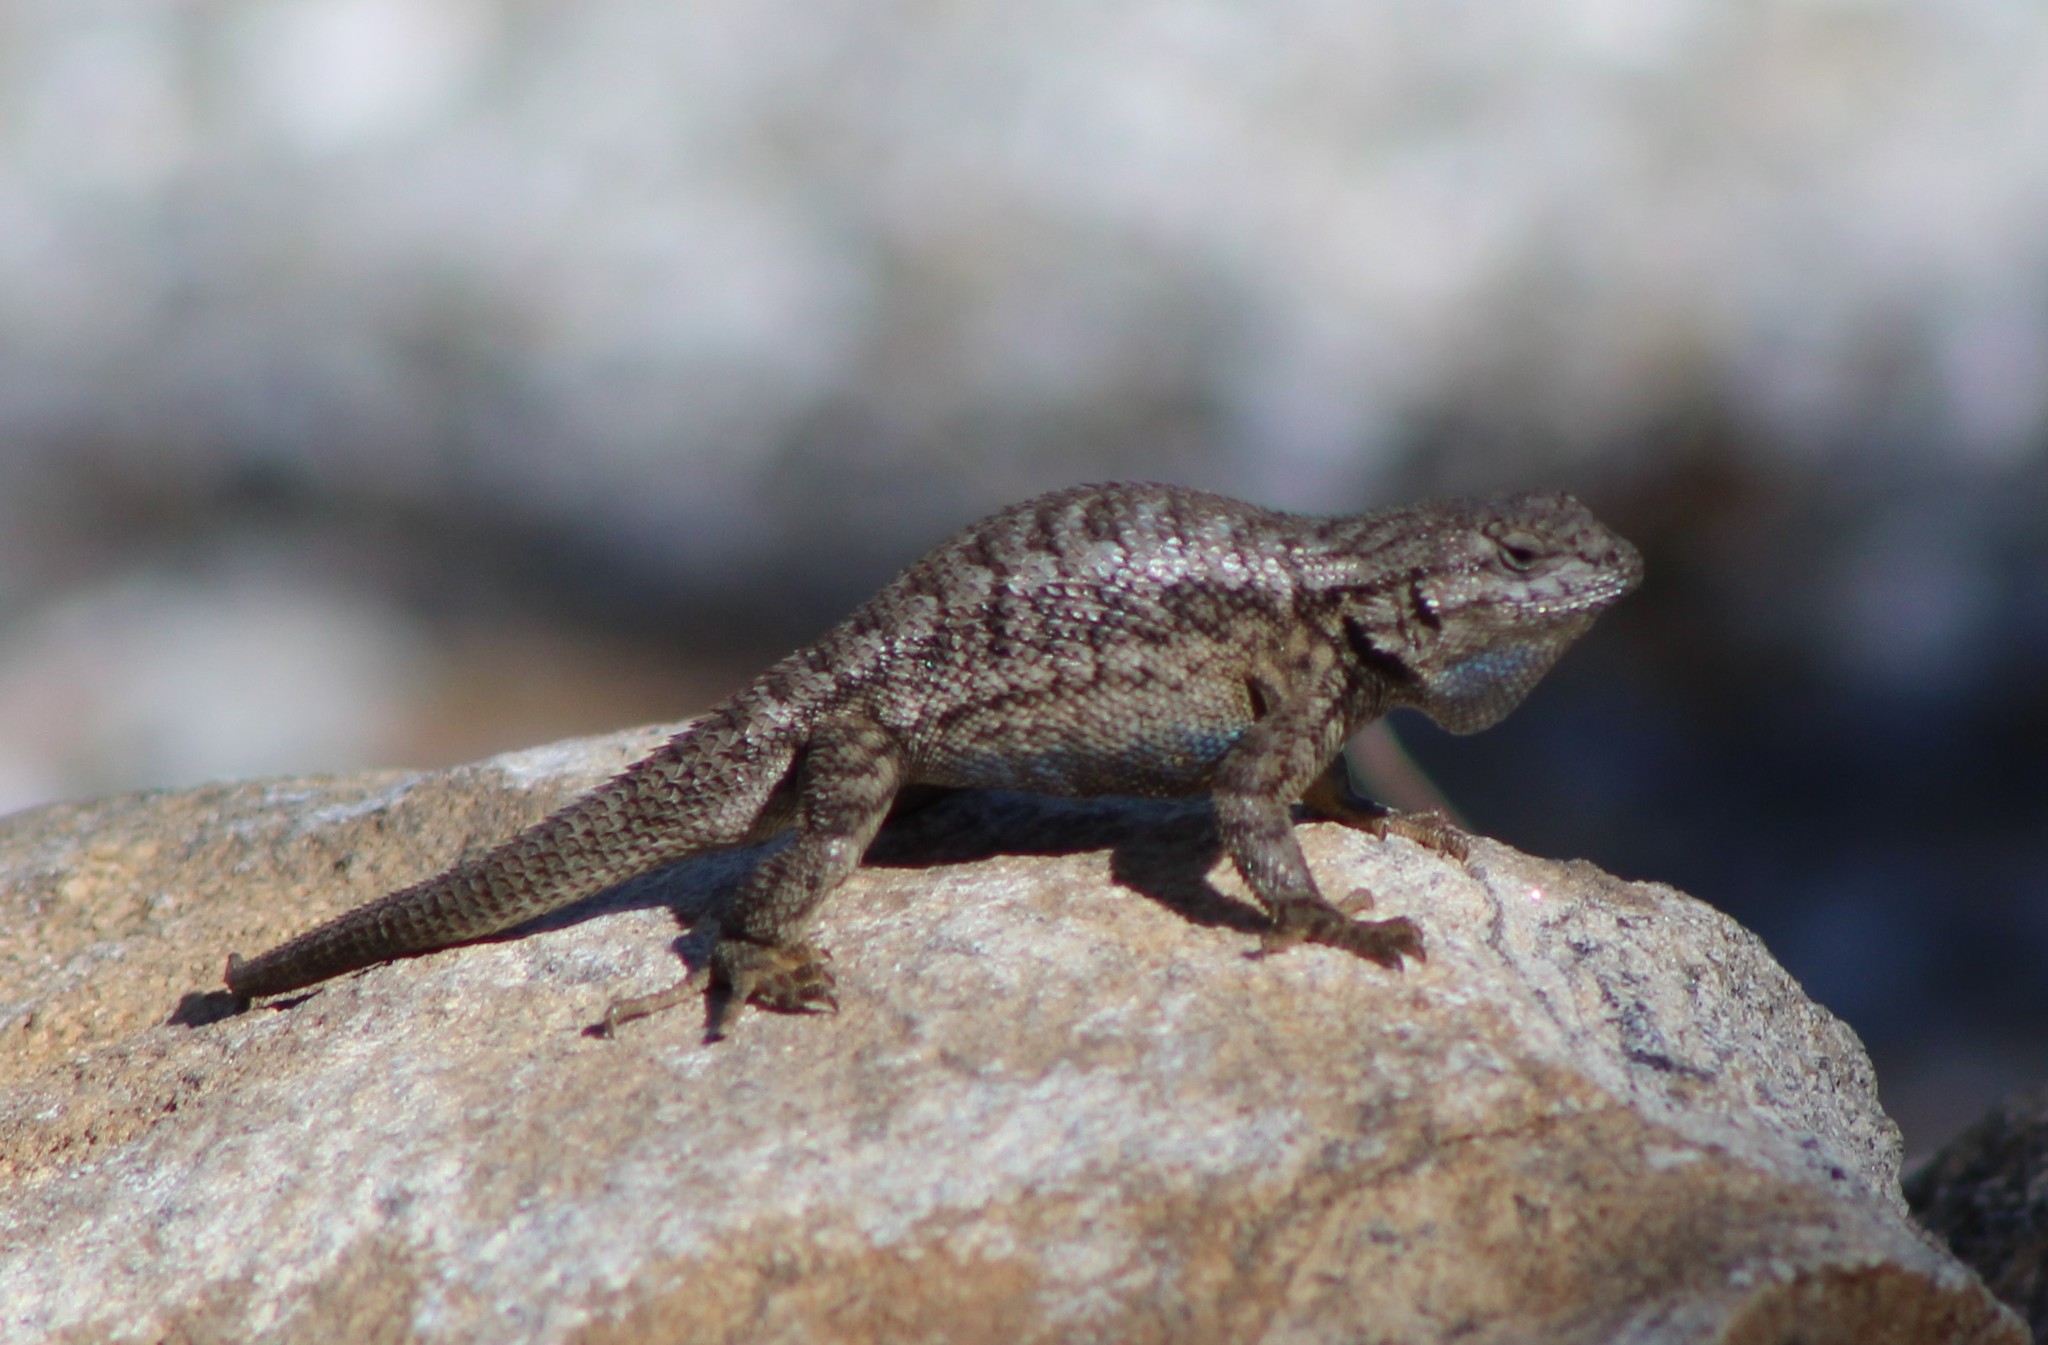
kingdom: Animalia
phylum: Chordata
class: Squamata
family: Phrynosomatidae
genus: Sceloporus
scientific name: Sceloporus occidentalis
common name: Western fence lizard
